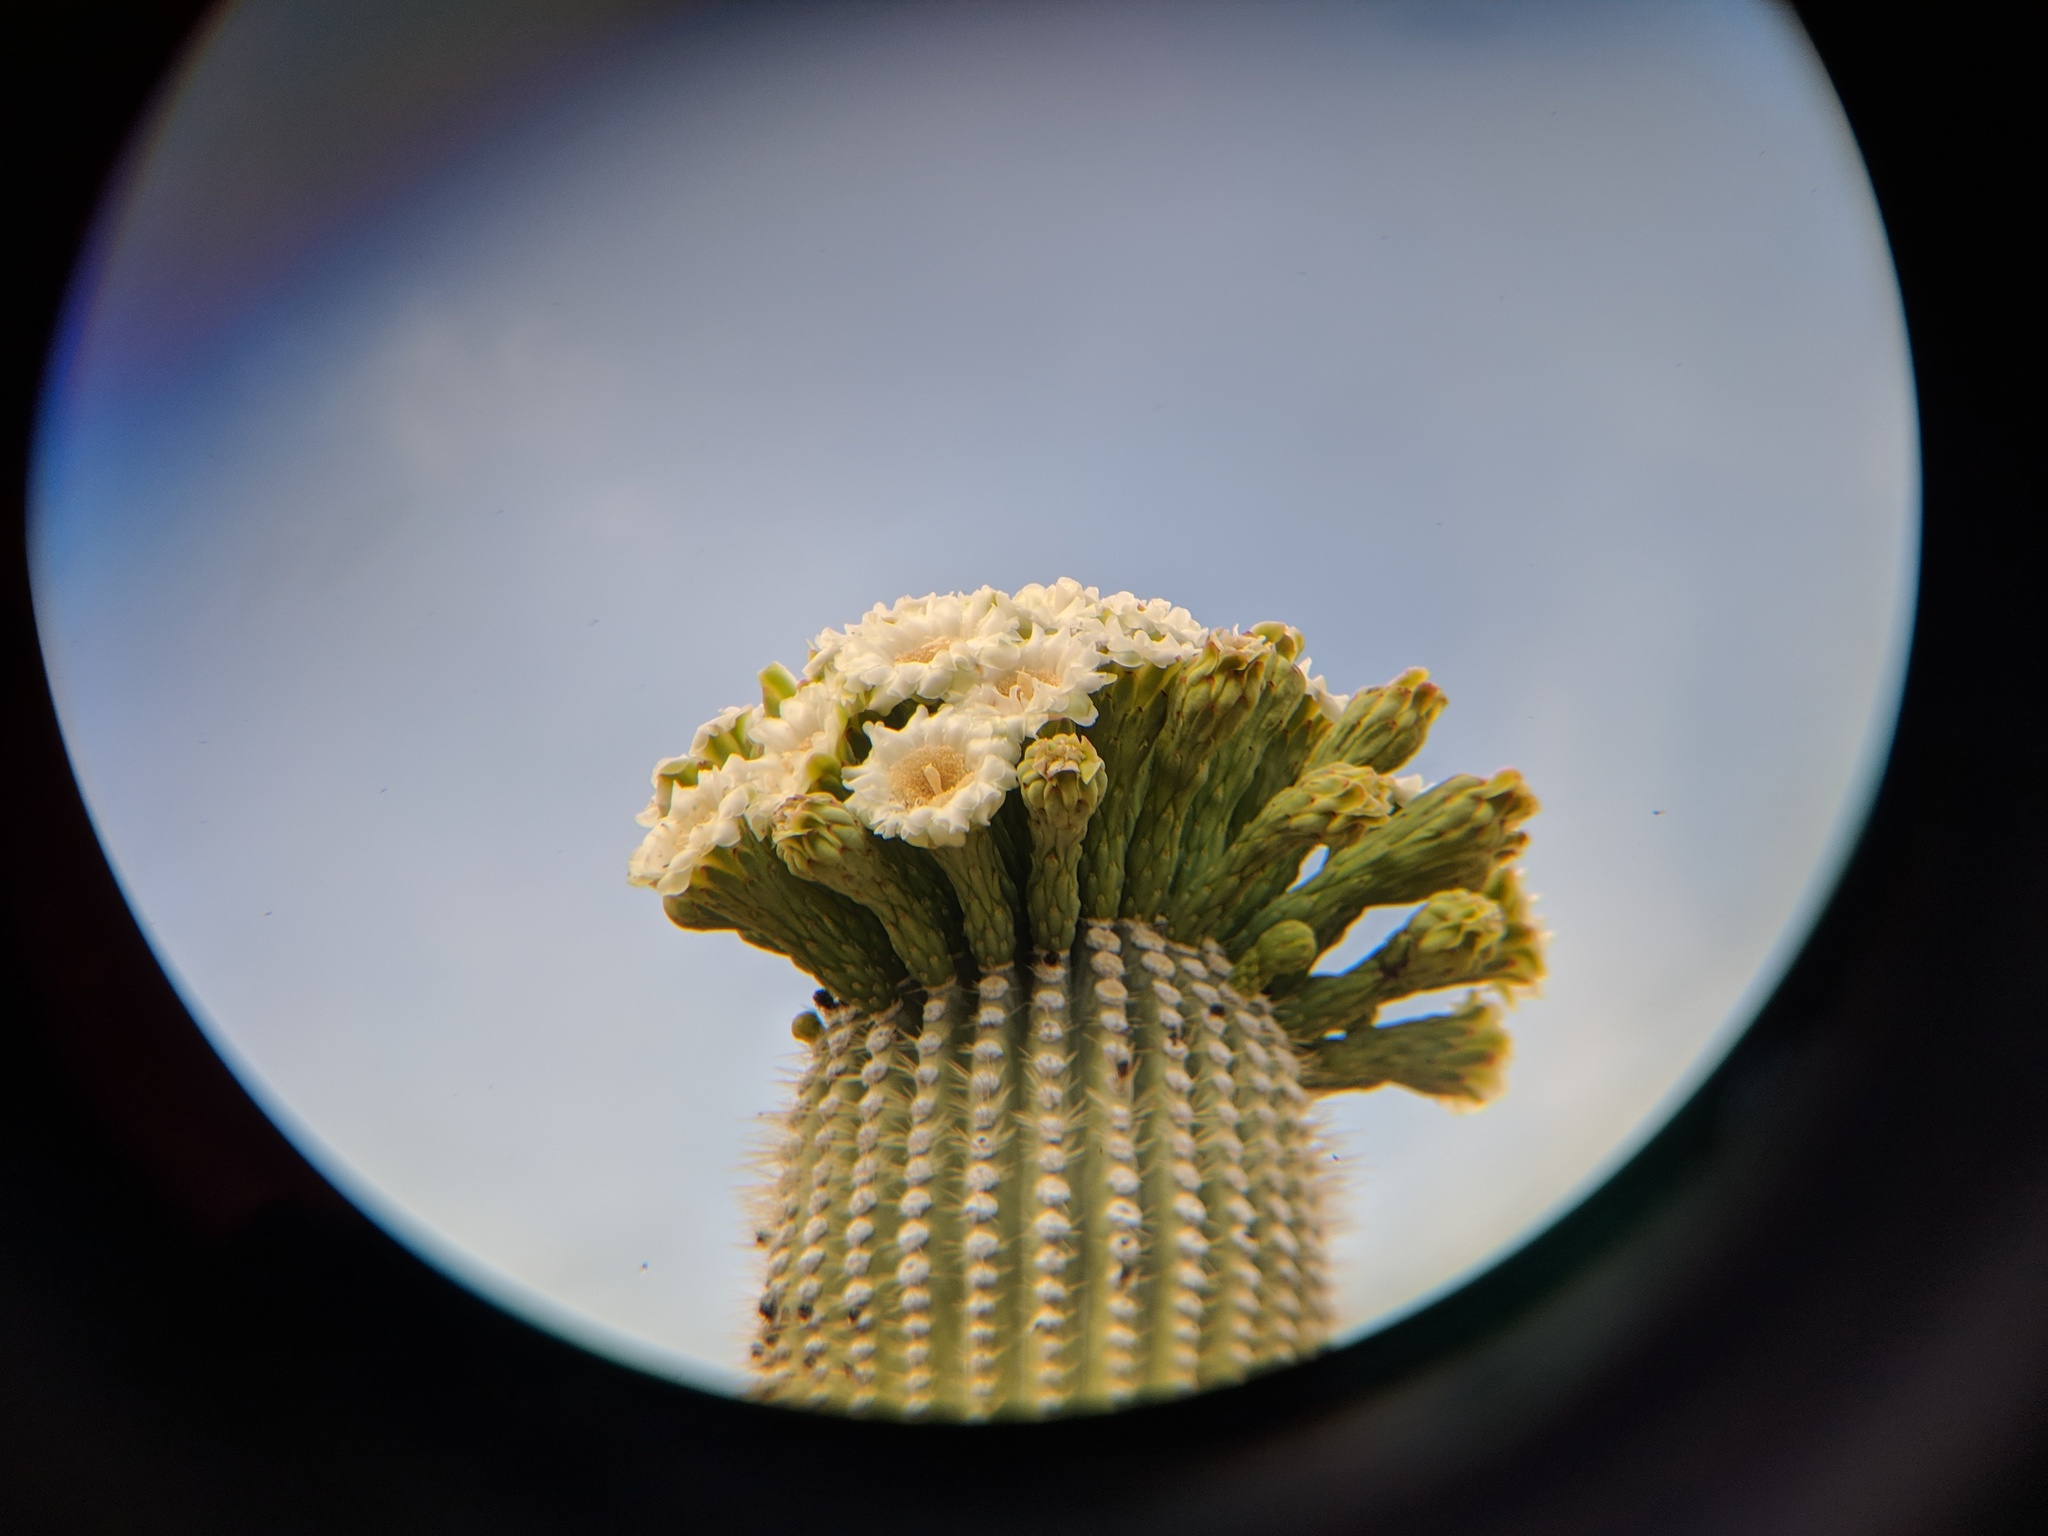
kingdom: Plantae
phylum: Tracheophyta
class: Magnoliopsida
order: Caryophyllales
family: Cactaceae
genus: Carnegiea
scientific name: Carnegiea gigantea
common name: Saguaro
